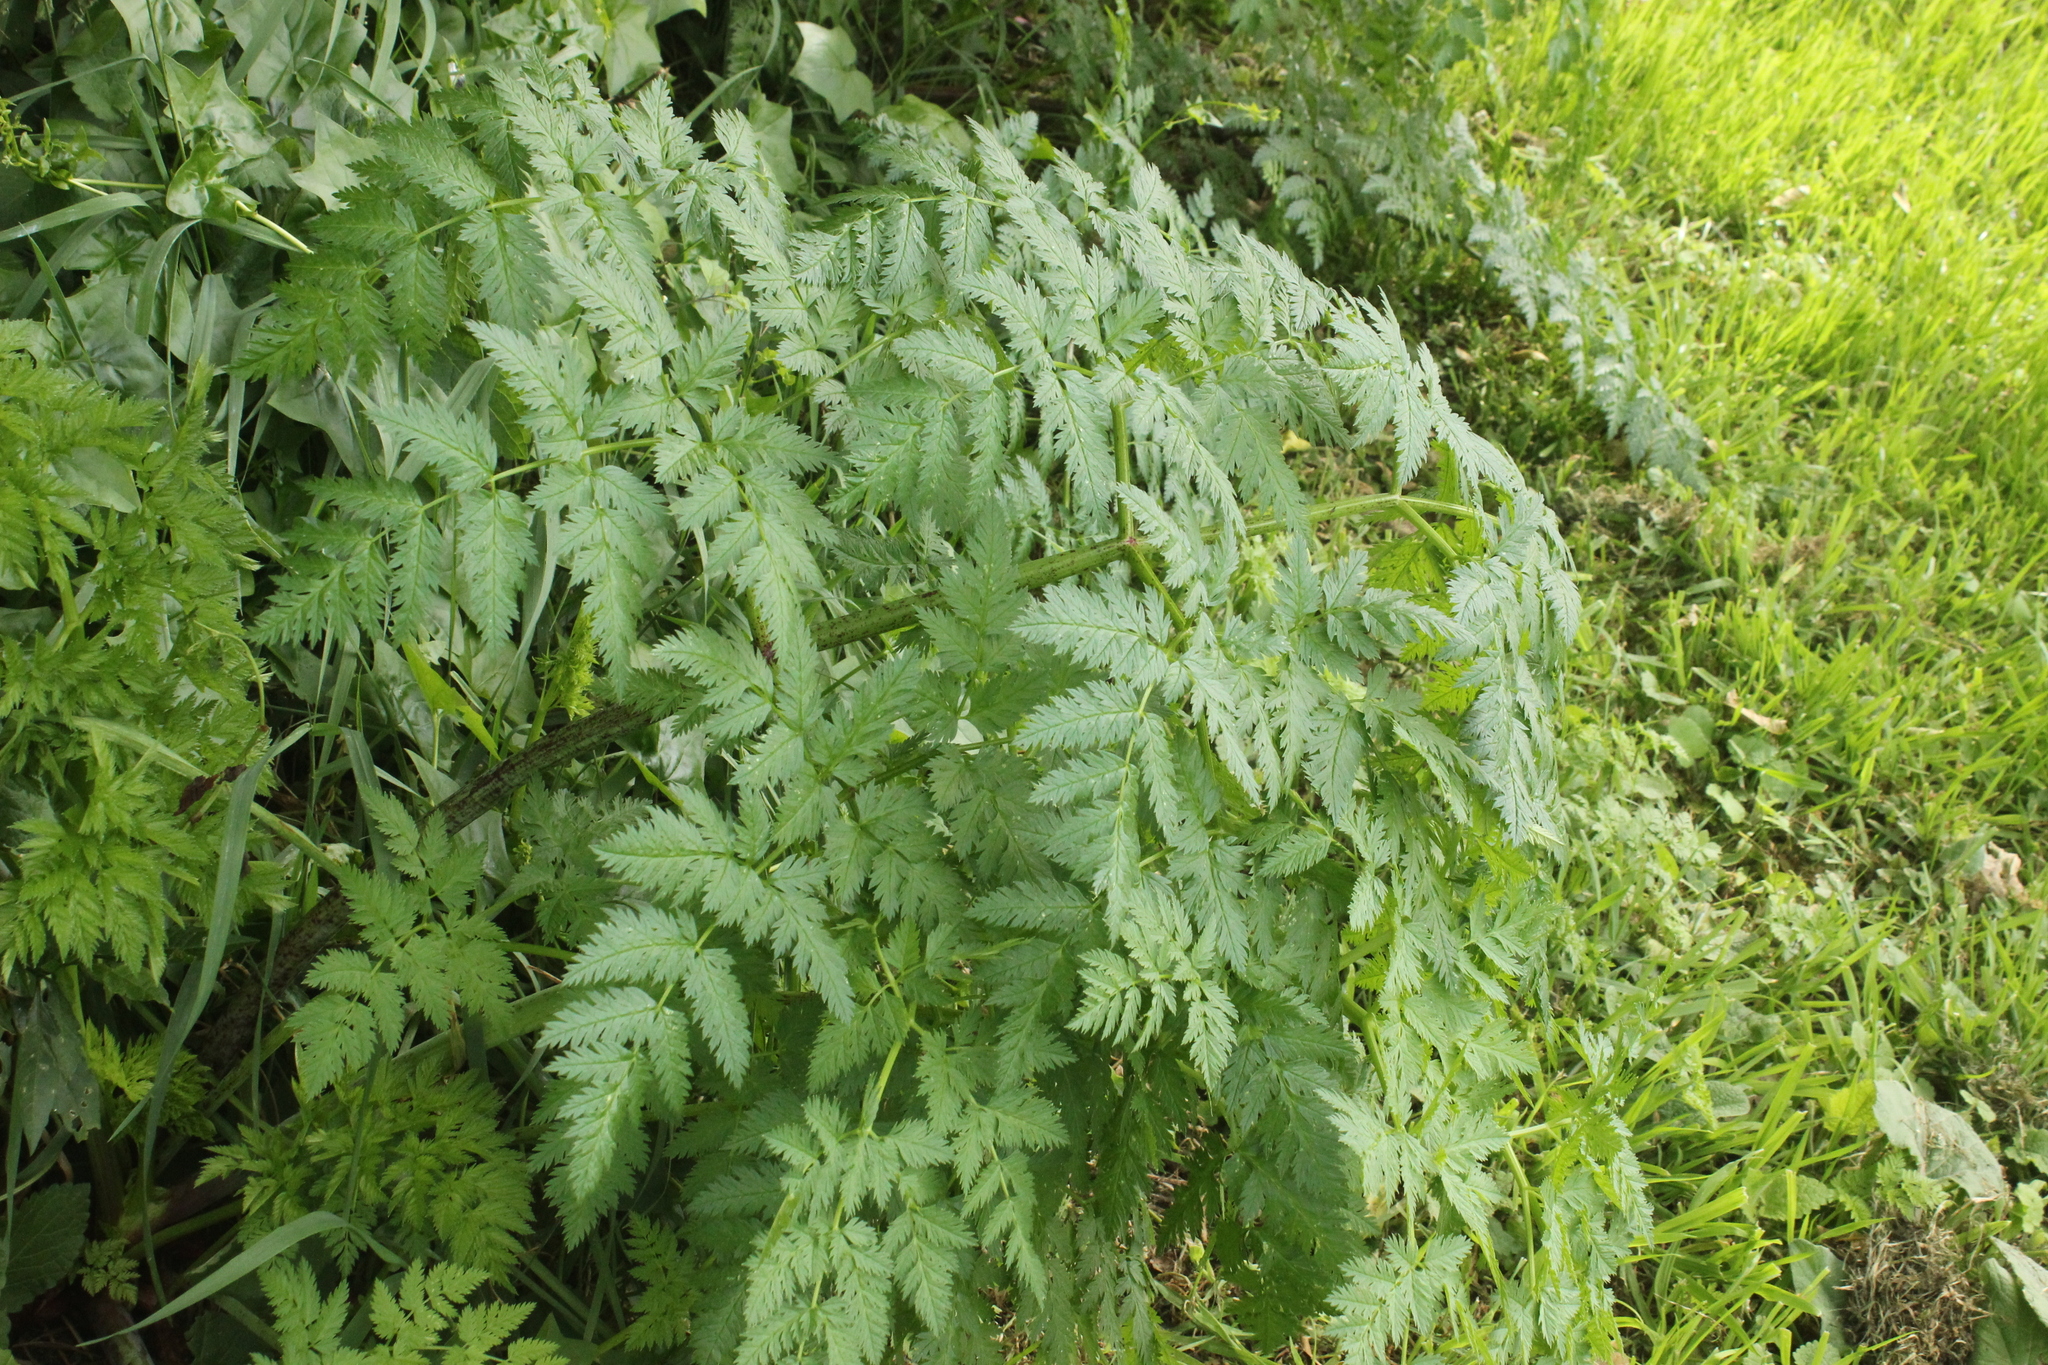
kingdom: Plantae
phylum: Tracheophyta
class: Magnoliopsida
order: Apiales
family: Apiaceae
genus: Conium
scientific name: Conium maculatum
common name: Hemlock
